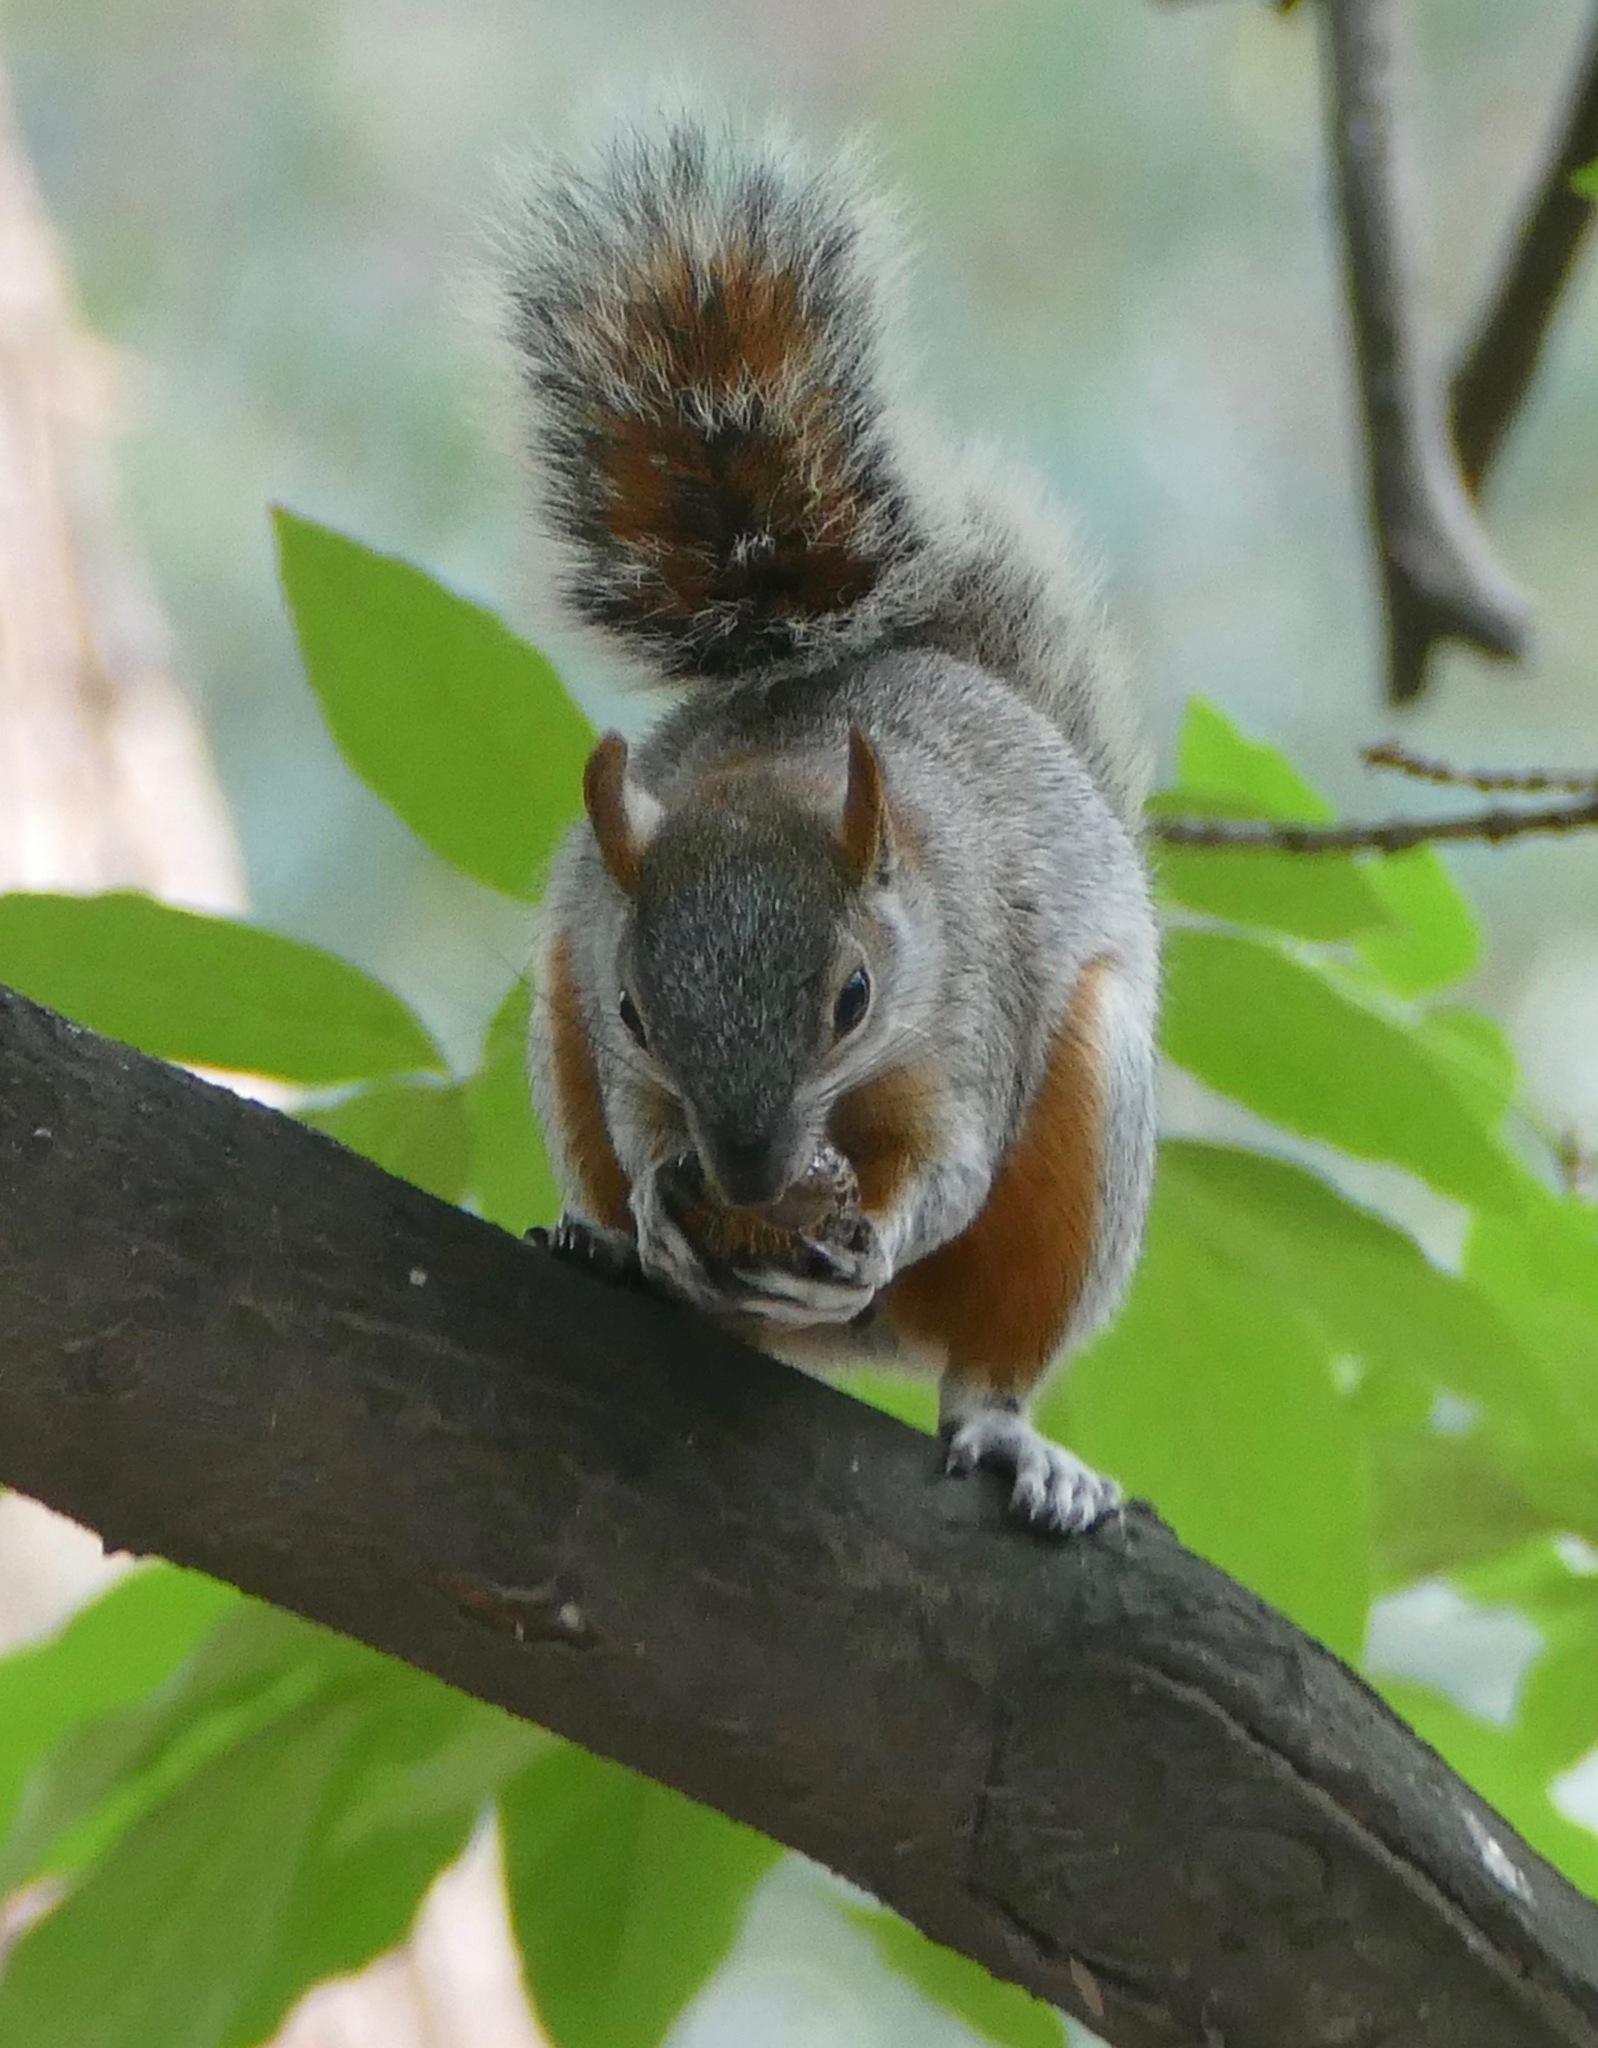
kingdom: Animalia
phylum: Chordata
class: Mammalia
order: Rodentia
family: Sciuridae
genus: Sciurus
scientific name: Sciurus aureogaster
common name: Red-bellied squirrel
